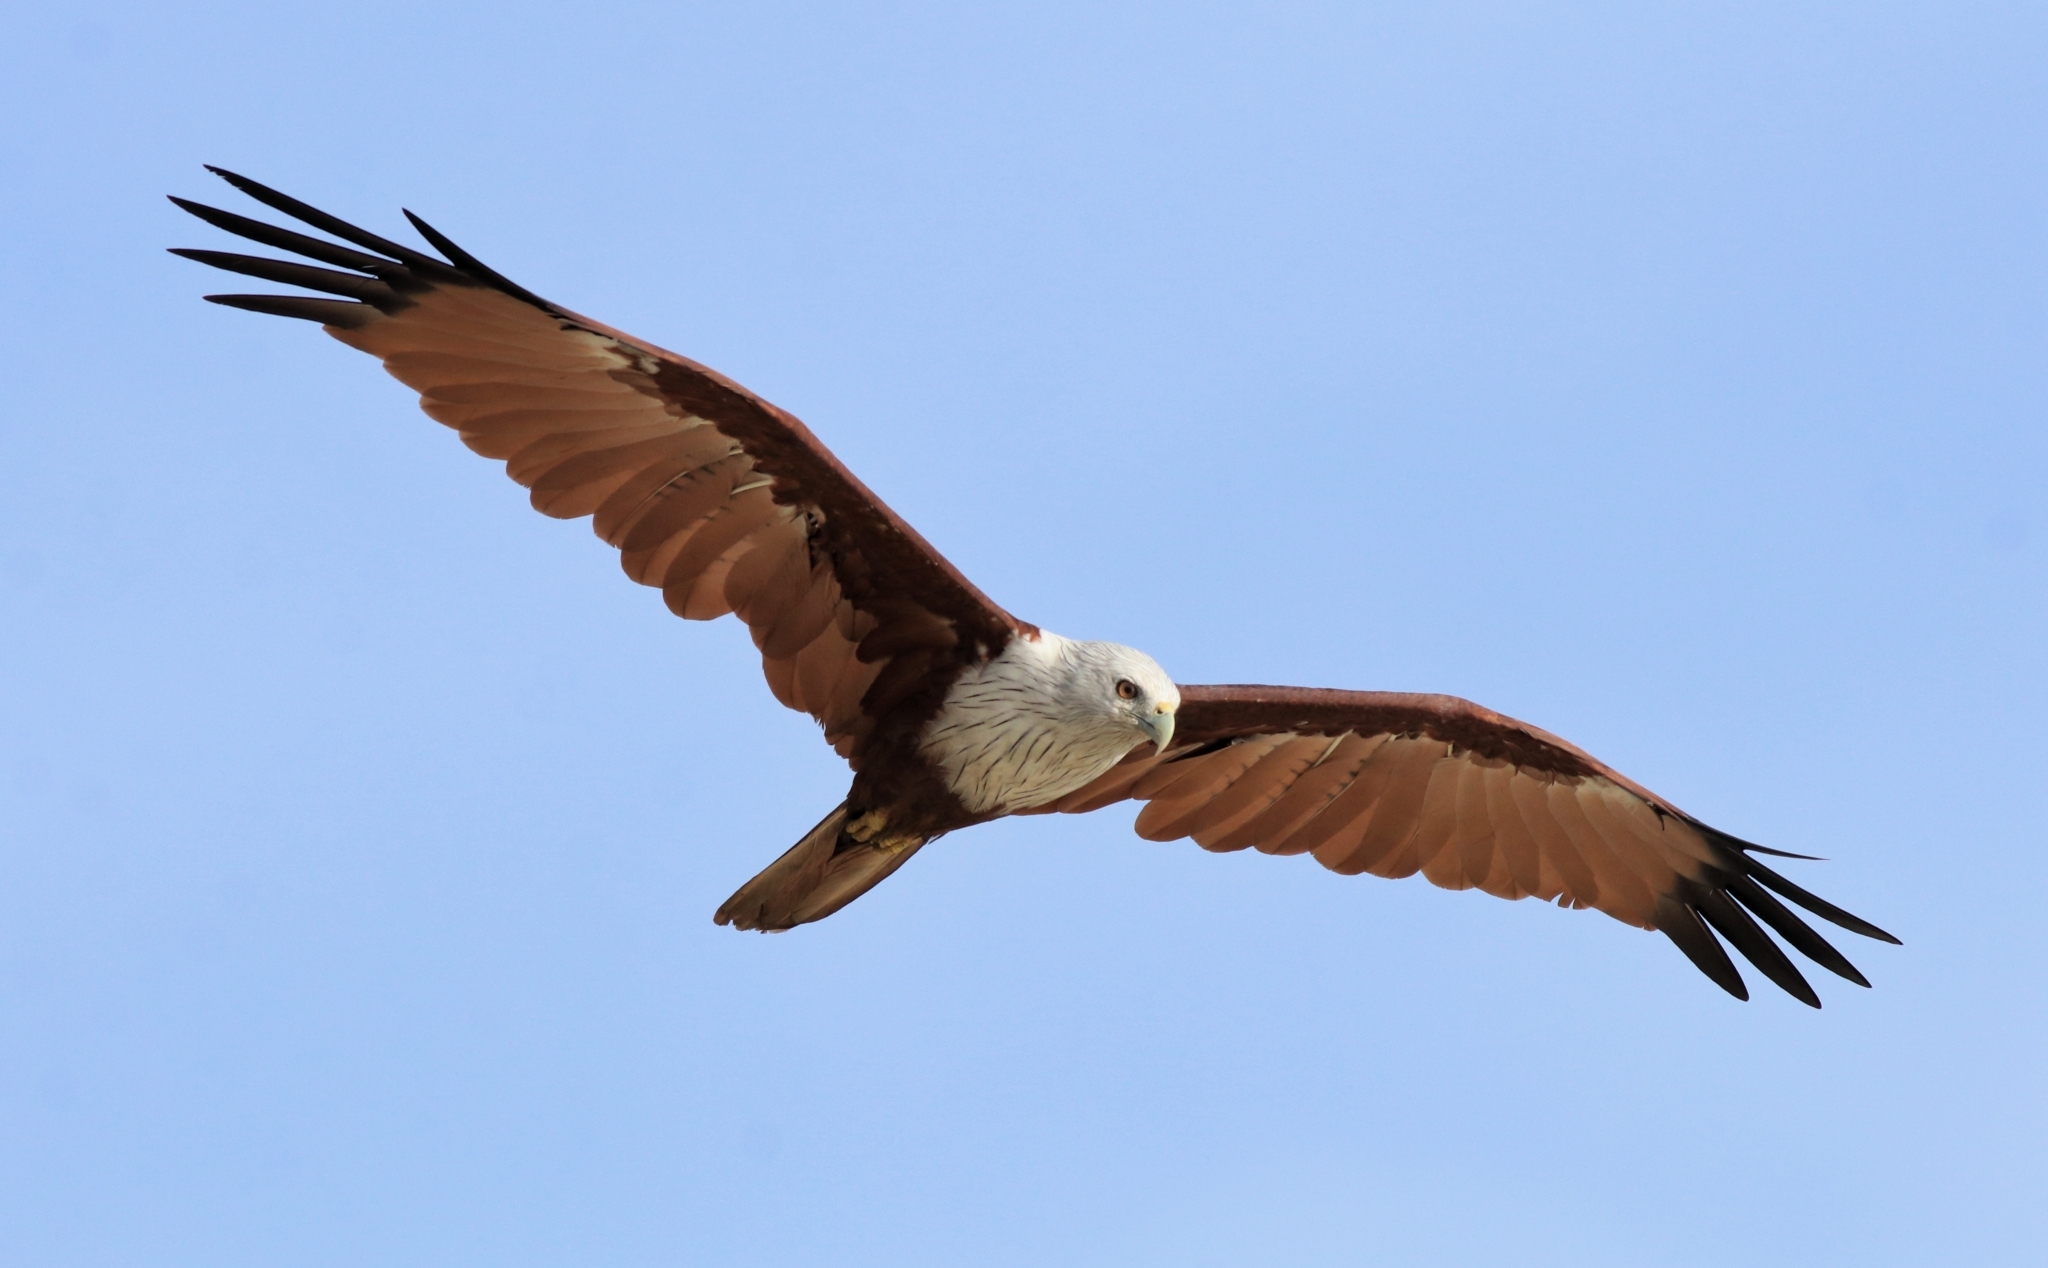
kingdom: Animalia
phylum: Chordata
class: Aves
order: Accipitriformes
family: Accipitridae
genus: Haliastur
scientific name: Haliastur indus
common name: Brahminy kite
